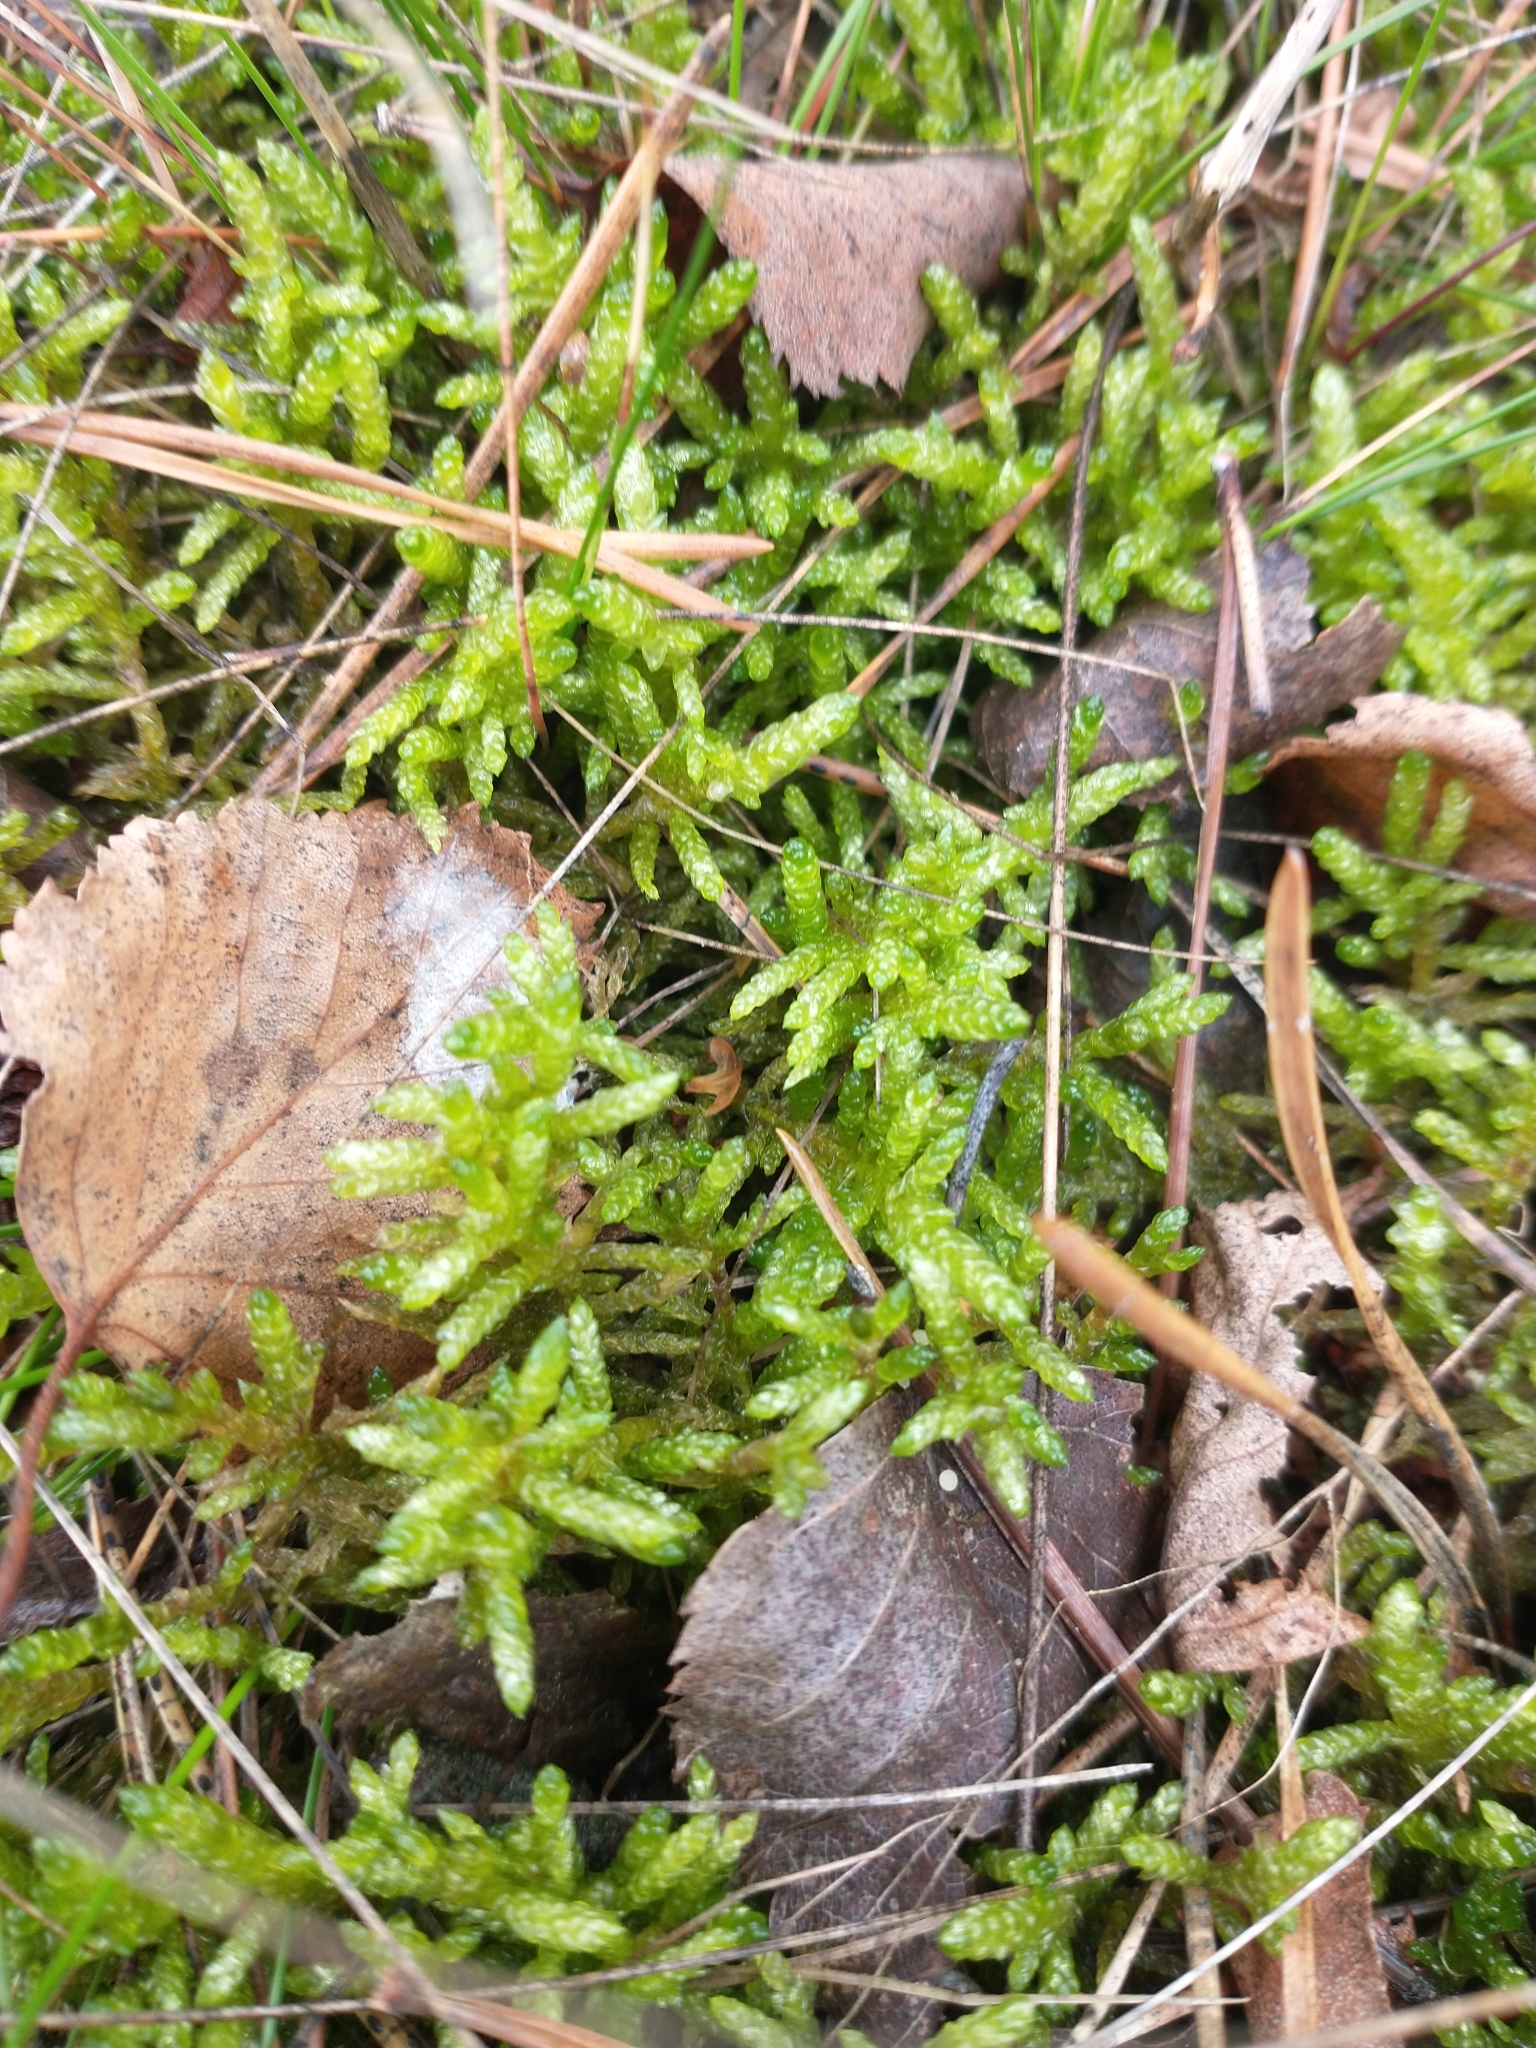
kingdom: Plantae
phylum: Bryophyta
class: Bryopsida
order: Hypnales
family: Brachytheciaceae
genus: Pseudoscleropodium
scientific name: Pseudoscleropodium purum
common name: Neat feather-moss
